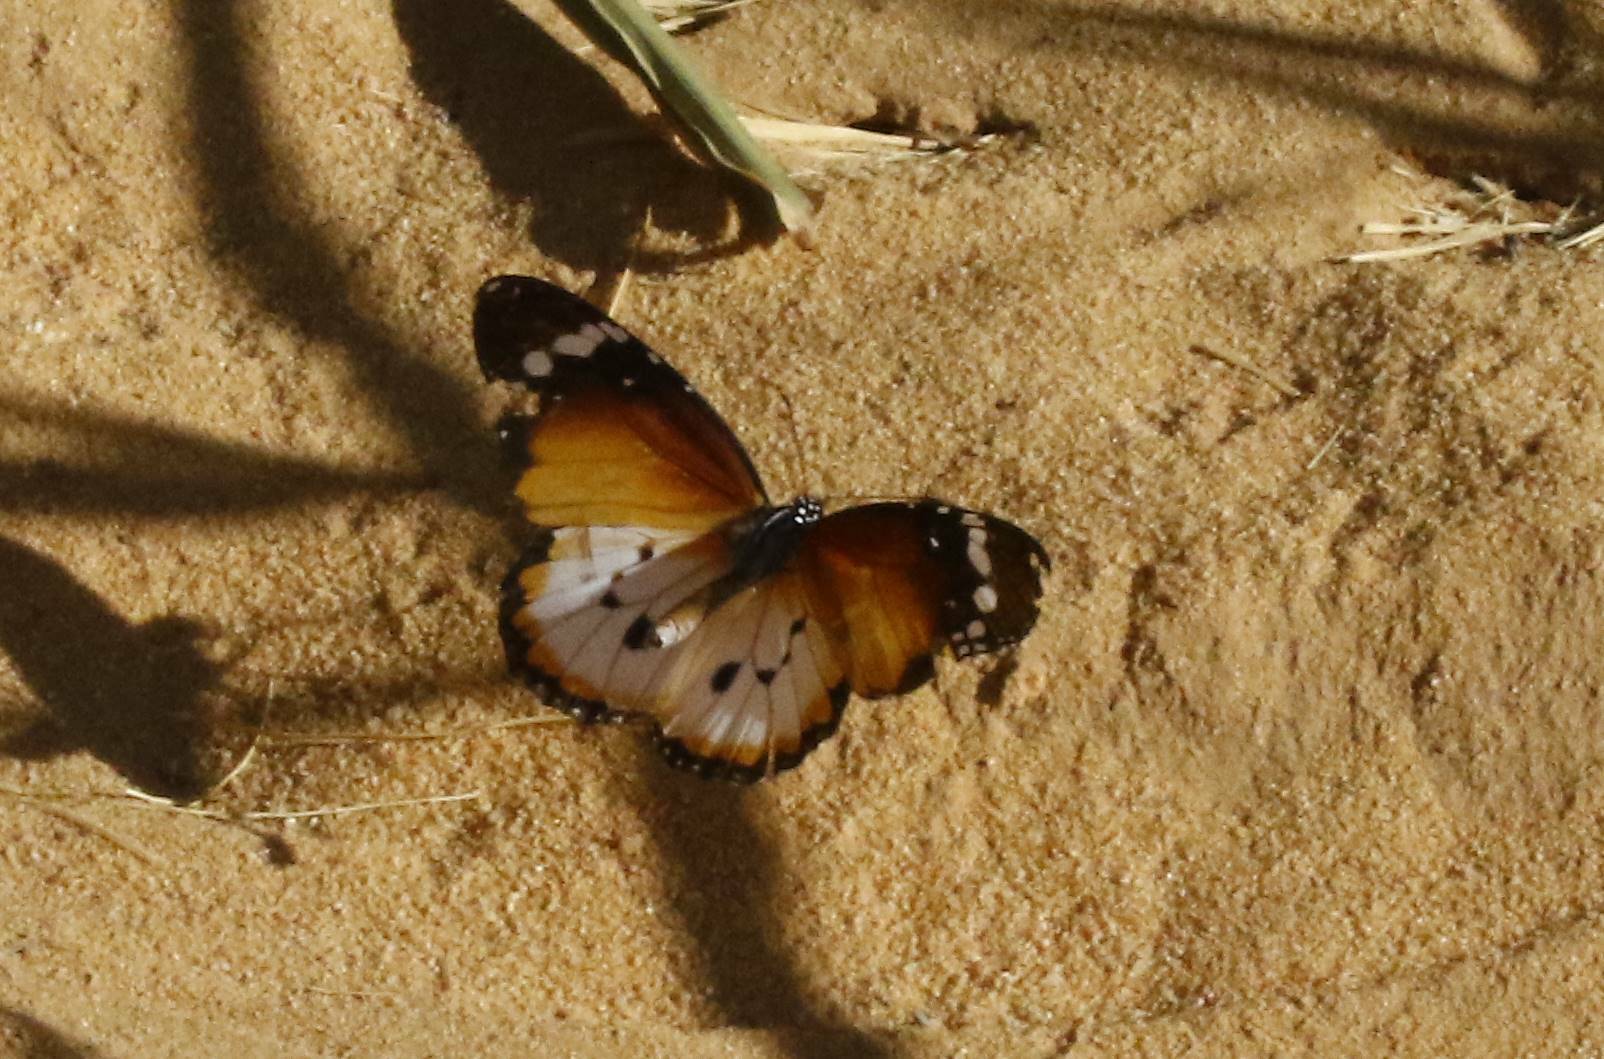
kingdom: Animalia
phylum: Arthropoda
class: Insecta
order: Lepidoptera
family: Nymphalidae
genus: Danaus
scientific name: Danaus chrysippus
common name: Plain tiger
